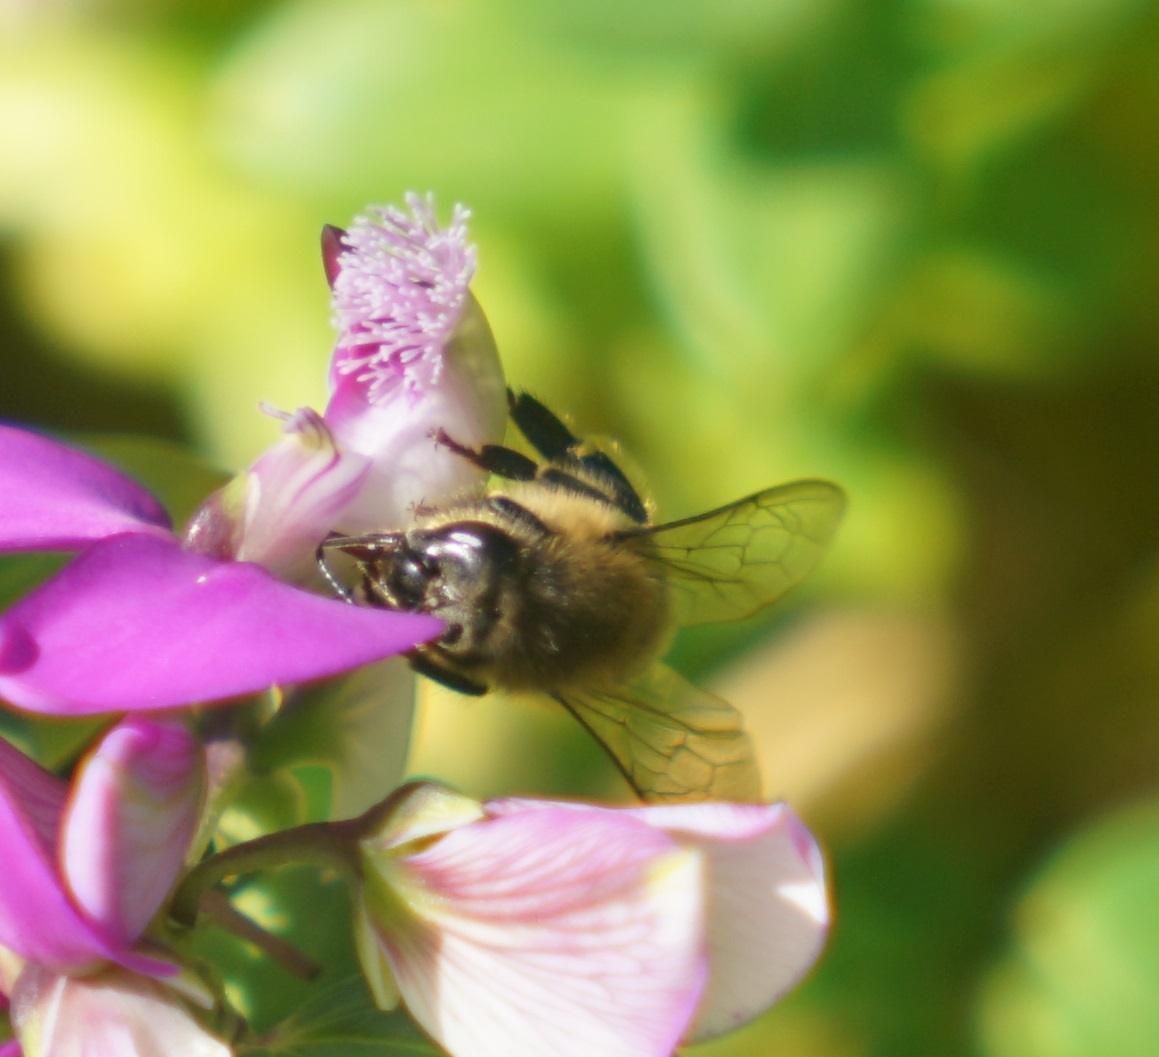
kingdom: Animalia
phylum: Arthropoda
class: Insecta
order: Hymenoptera
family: Apidae
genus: Apis
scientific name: Apis mellifera
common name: Honey bee
